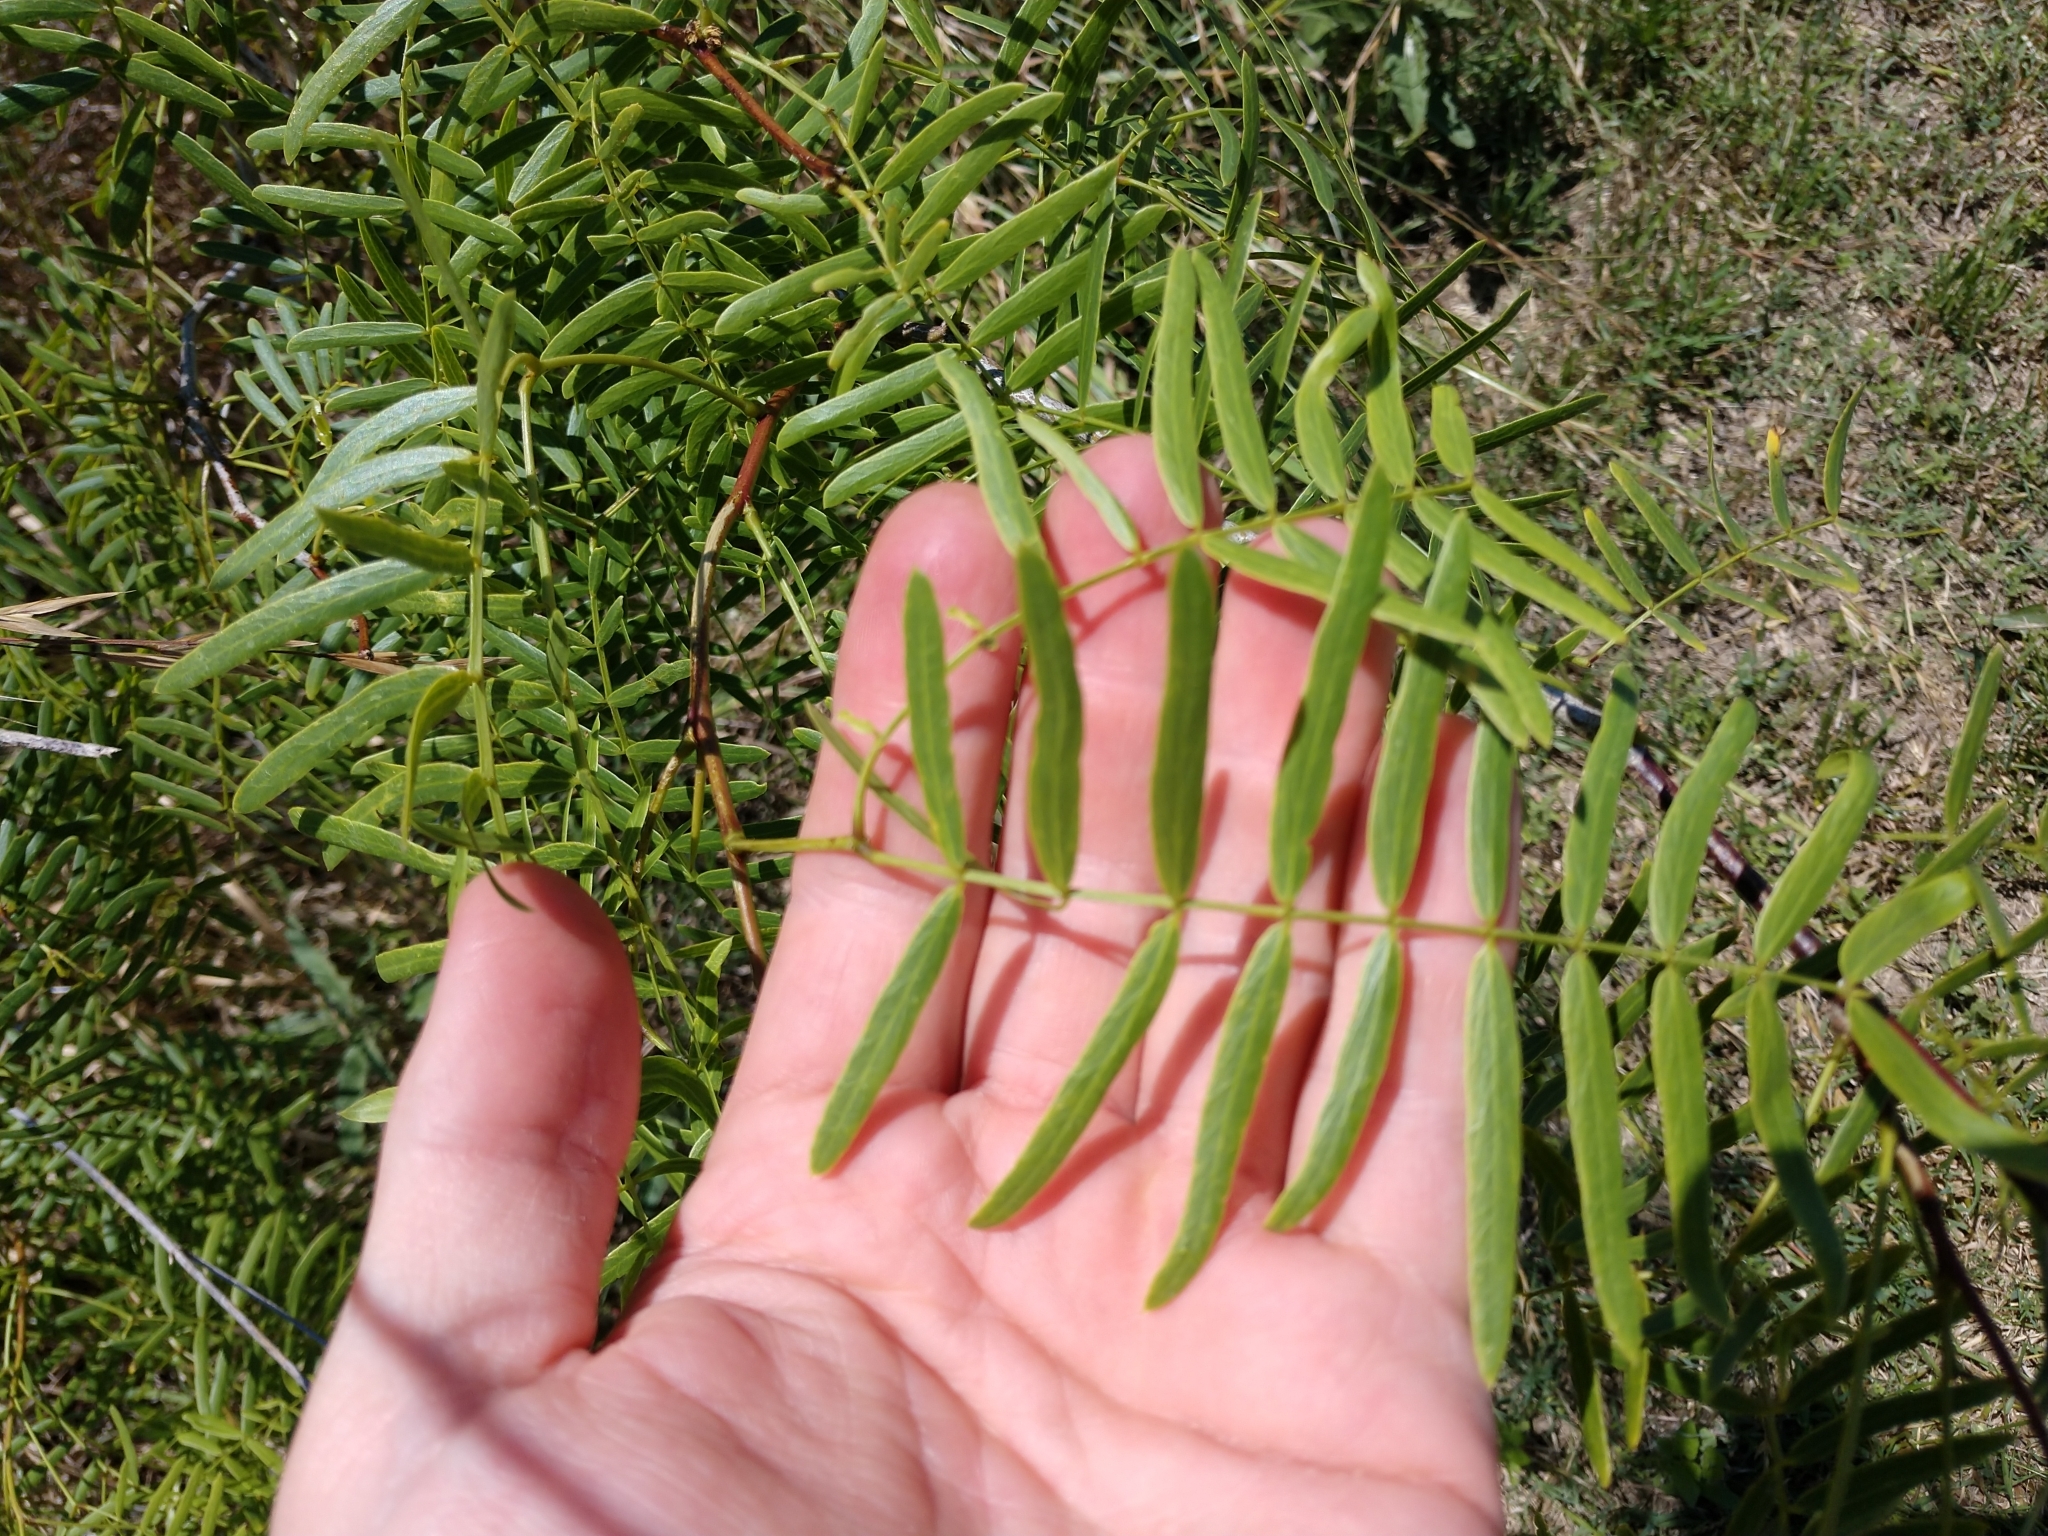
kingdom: Plantae
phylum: Tracheophyta
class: Magnoliopsida
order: Fabales
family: Fabaceae
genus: Prosopis
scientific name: Prosopis glandulosa
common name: Honey mesquite
